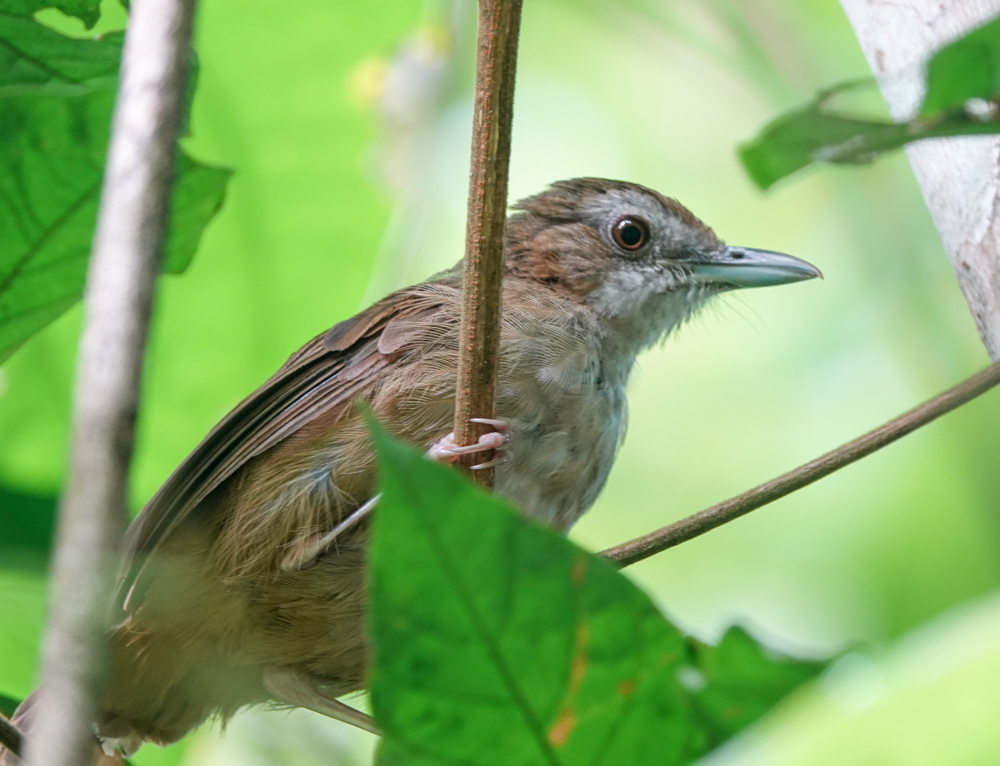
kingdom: Animalia
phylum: Chordata
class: Aves
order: Passeriformes
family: Pellorneidae
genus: Malacocincla
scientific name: Malacocincla abbotti
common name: Abbott's babbler
